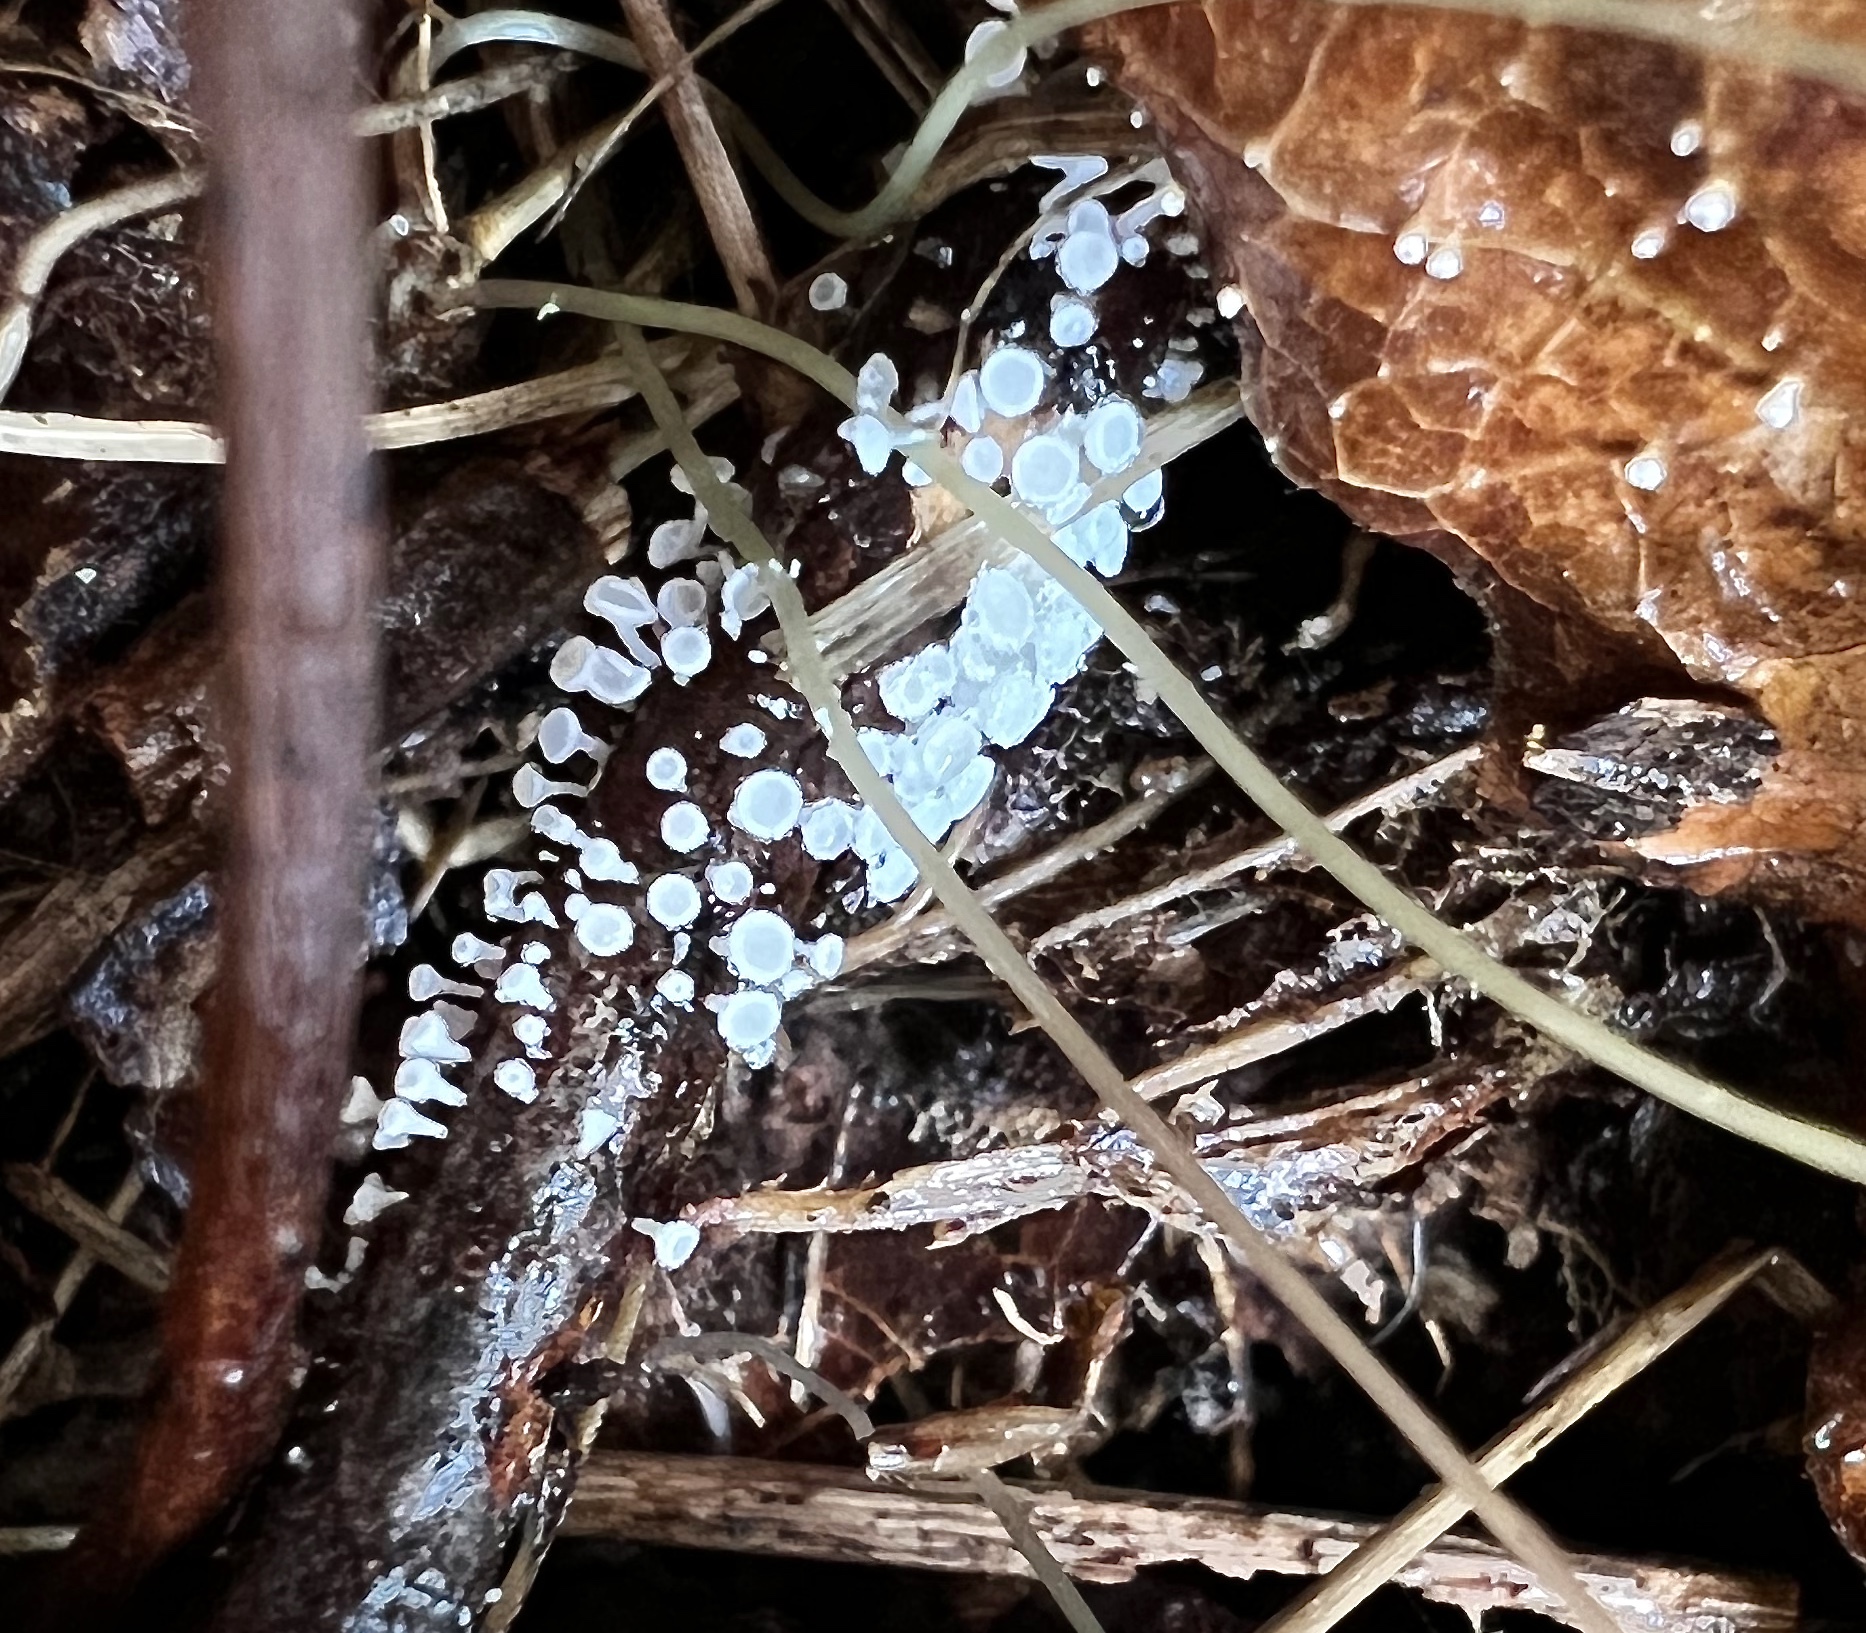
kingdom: Fungi
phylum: Ascomycota
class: Leotiomycetes
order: Helotiales
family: Lachnaceae
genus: Lachnum
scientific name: Lachnum virgineum
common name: Snowy disco
